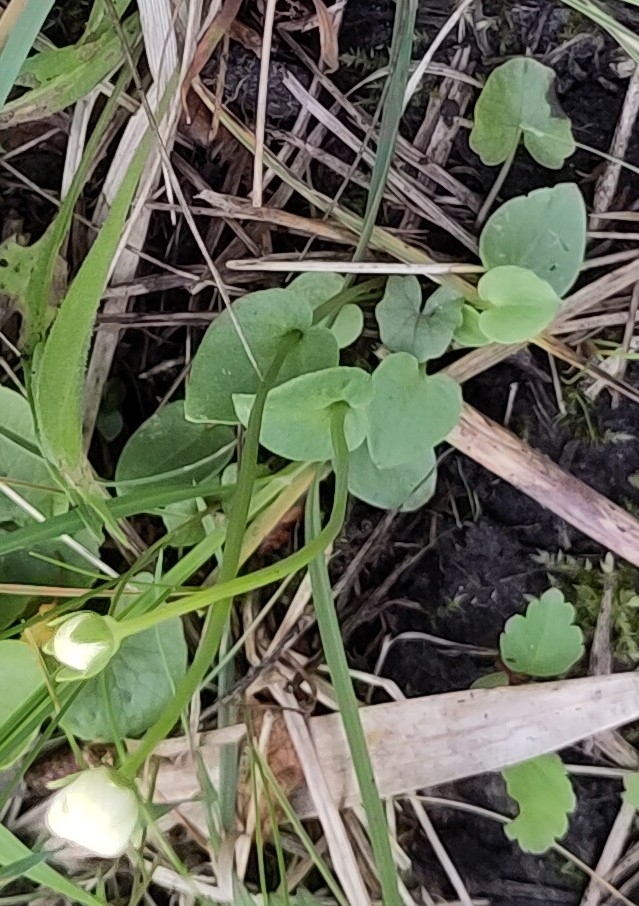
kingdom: Plantae
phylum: Tracheophyta
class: Magnoliopsida
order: Celastrales
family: Parnassiaceae
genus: Parnassia
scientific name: Parnassia palustris
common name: Grass-of-parnassus
